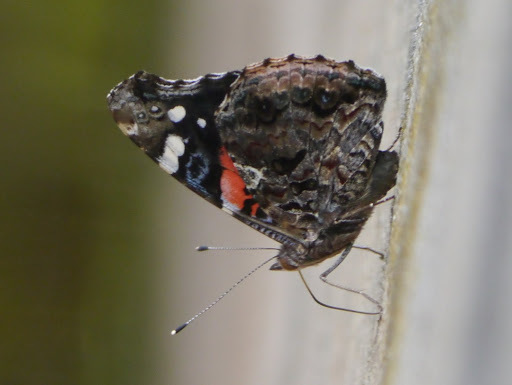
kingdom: Animalia
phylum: Arthropoda
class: Insecta
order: Lepidoptera
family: Nymphalidae
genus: Vanessa
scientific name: Vanessa atalanta
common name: Red admiral
